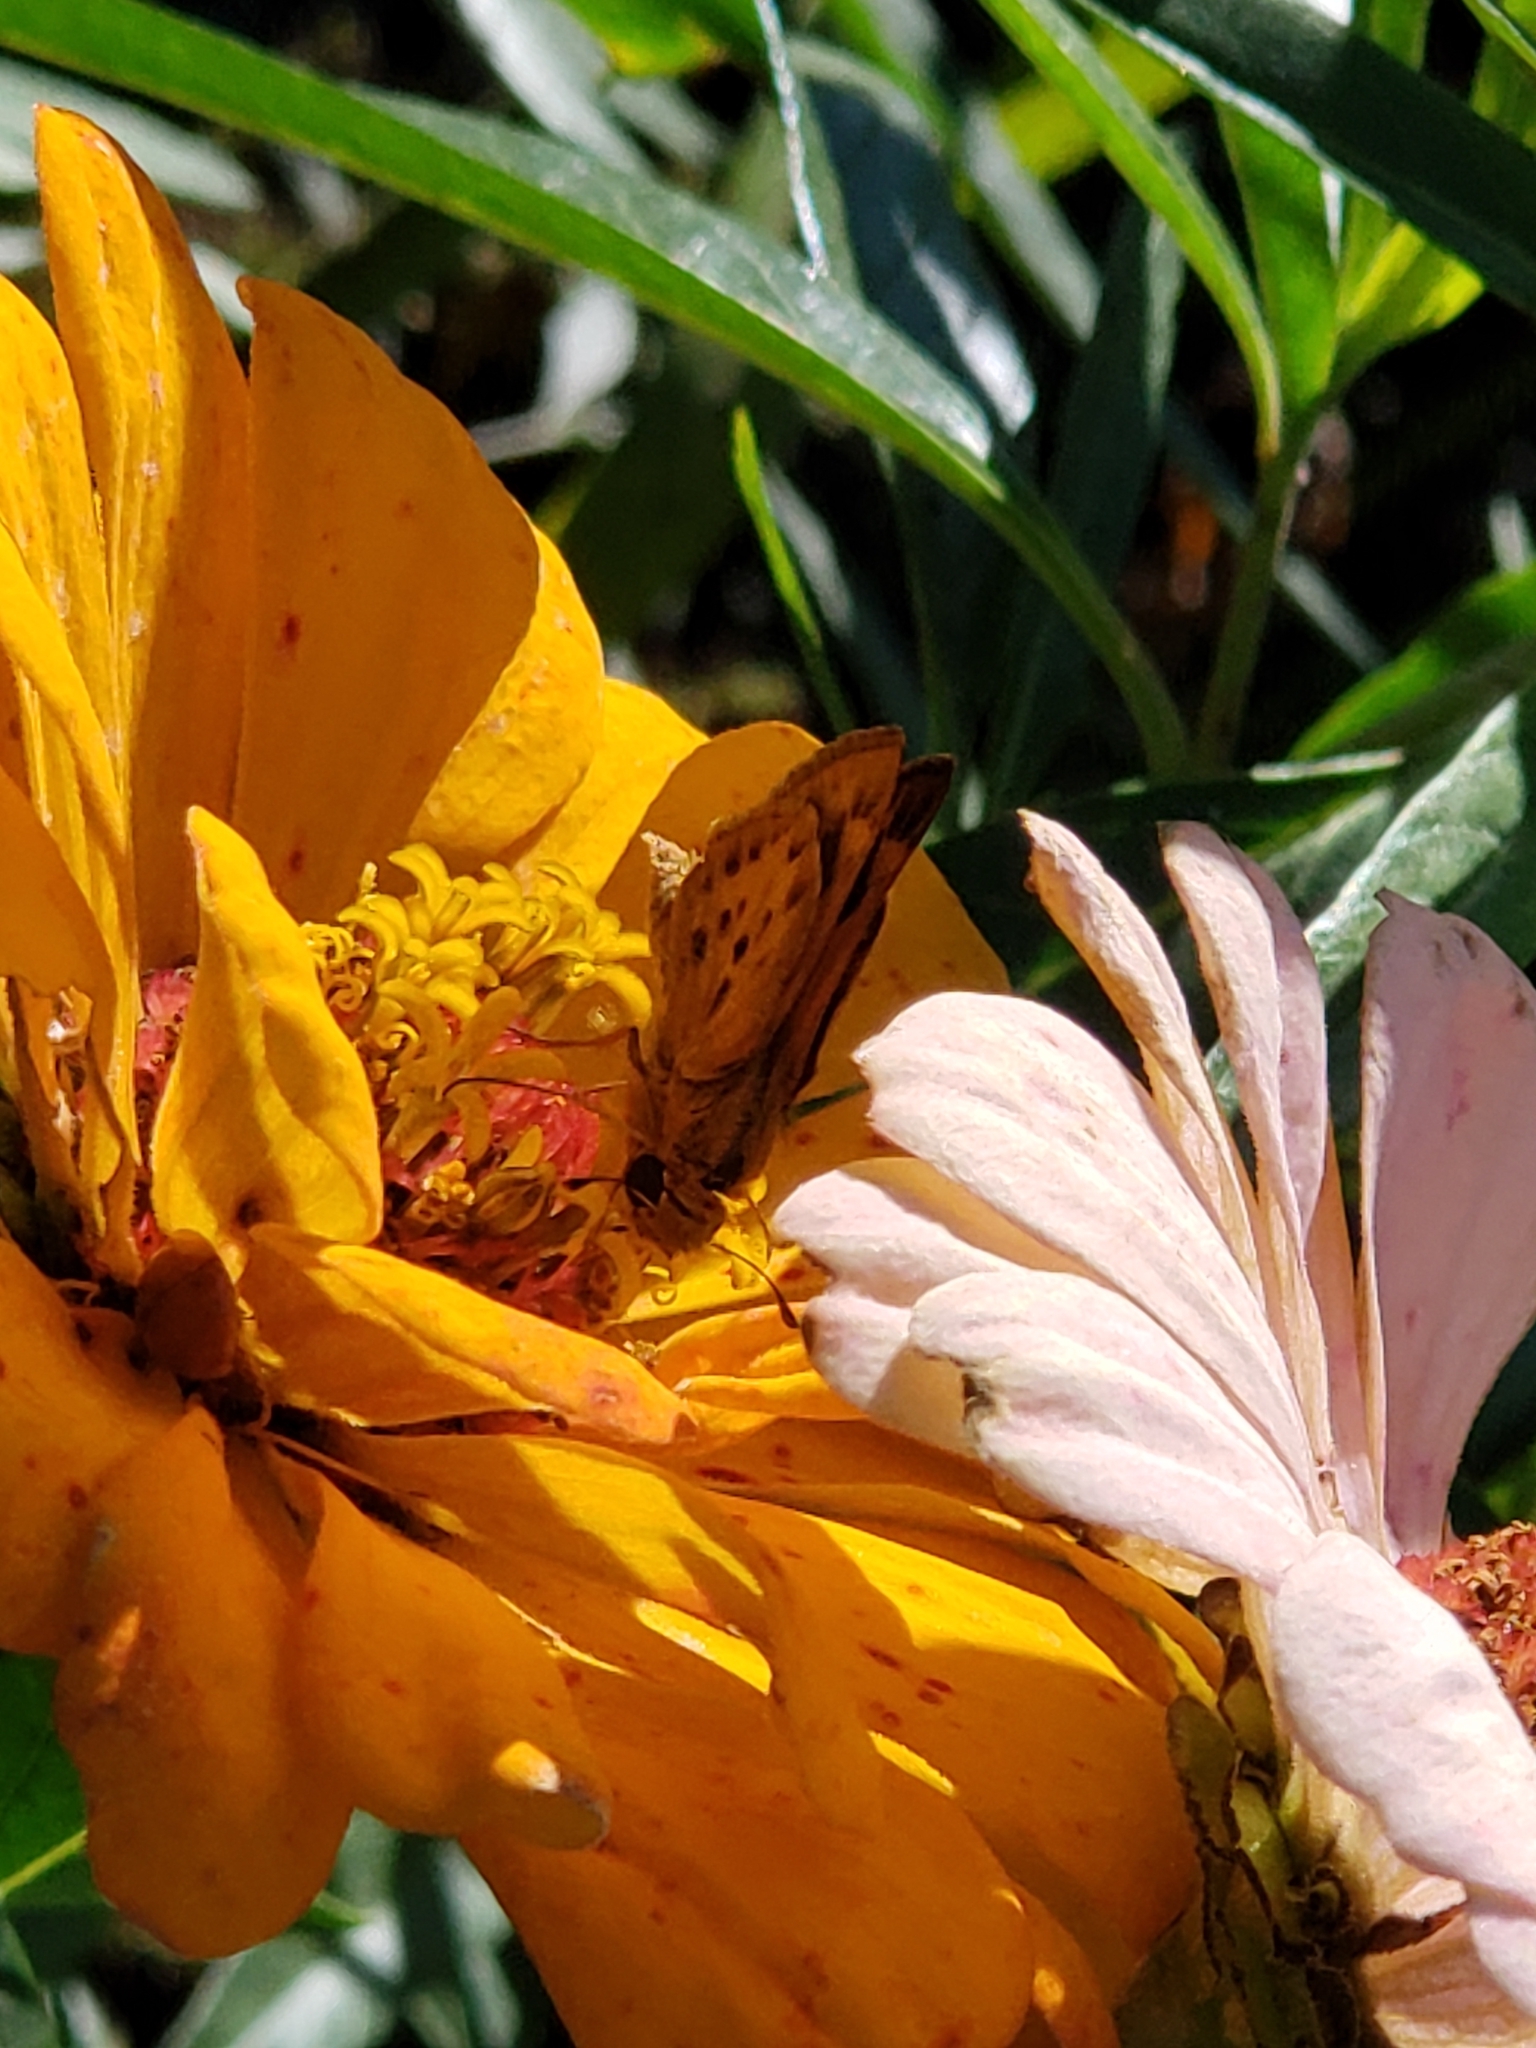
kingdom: Animalia
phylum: Arthropoda
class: Insecta
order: Lepidoptera
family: Hesperiidae
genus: Hylephila
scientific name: Hylephila phyleus
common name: Fiery skipper
